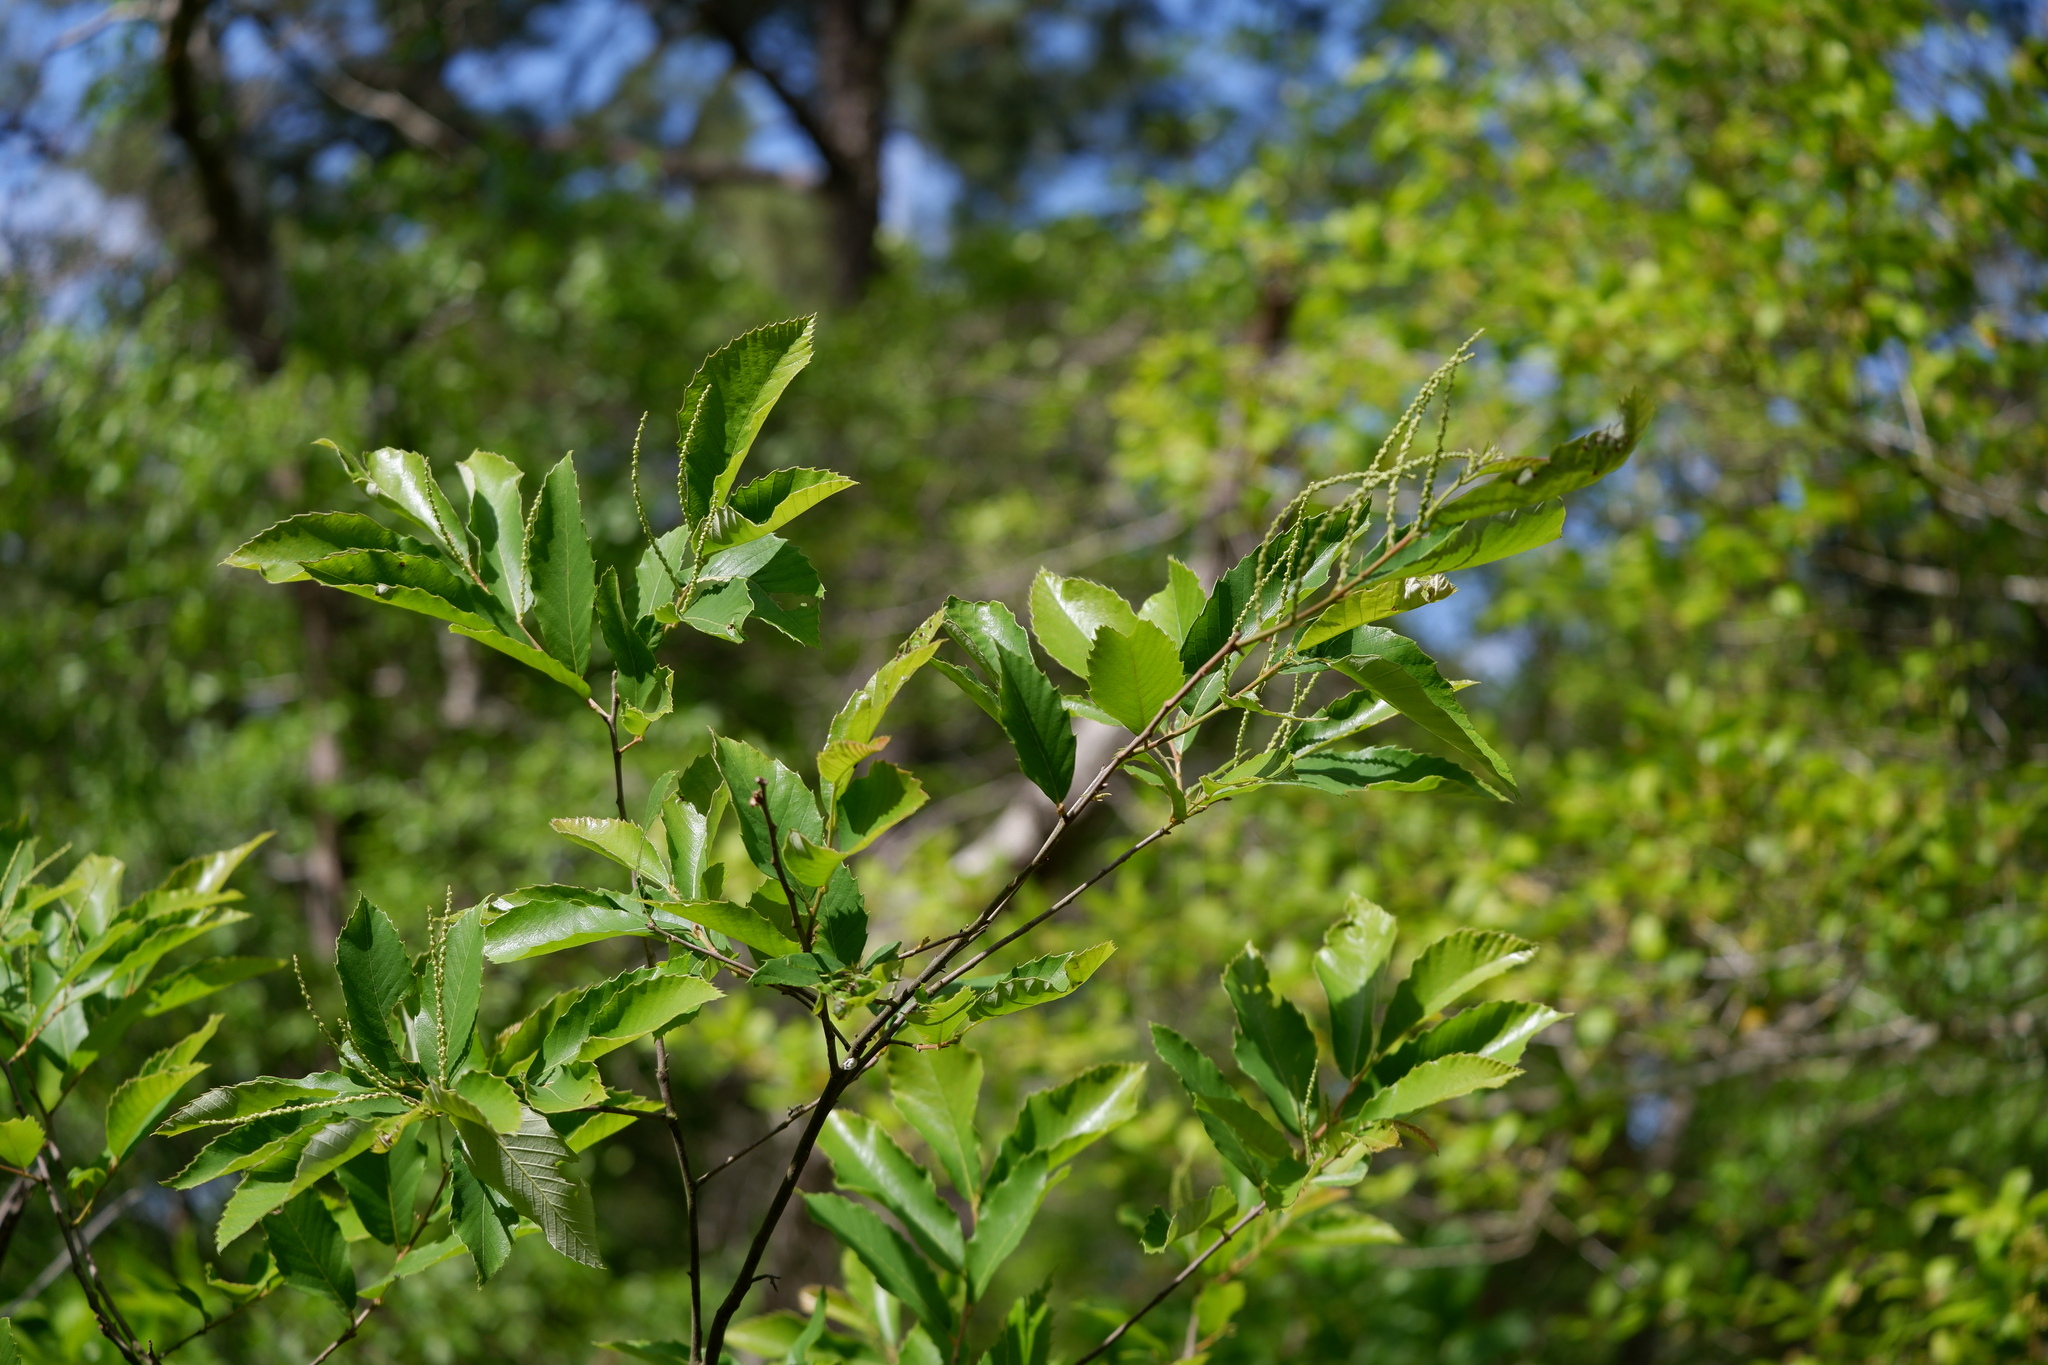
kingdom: Plantae
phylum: Tracheophyta
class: Magnoliopsida
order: Fagales
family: Fagaceae
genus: Castanea
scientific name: Castanea pumila
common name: Chinkapin
